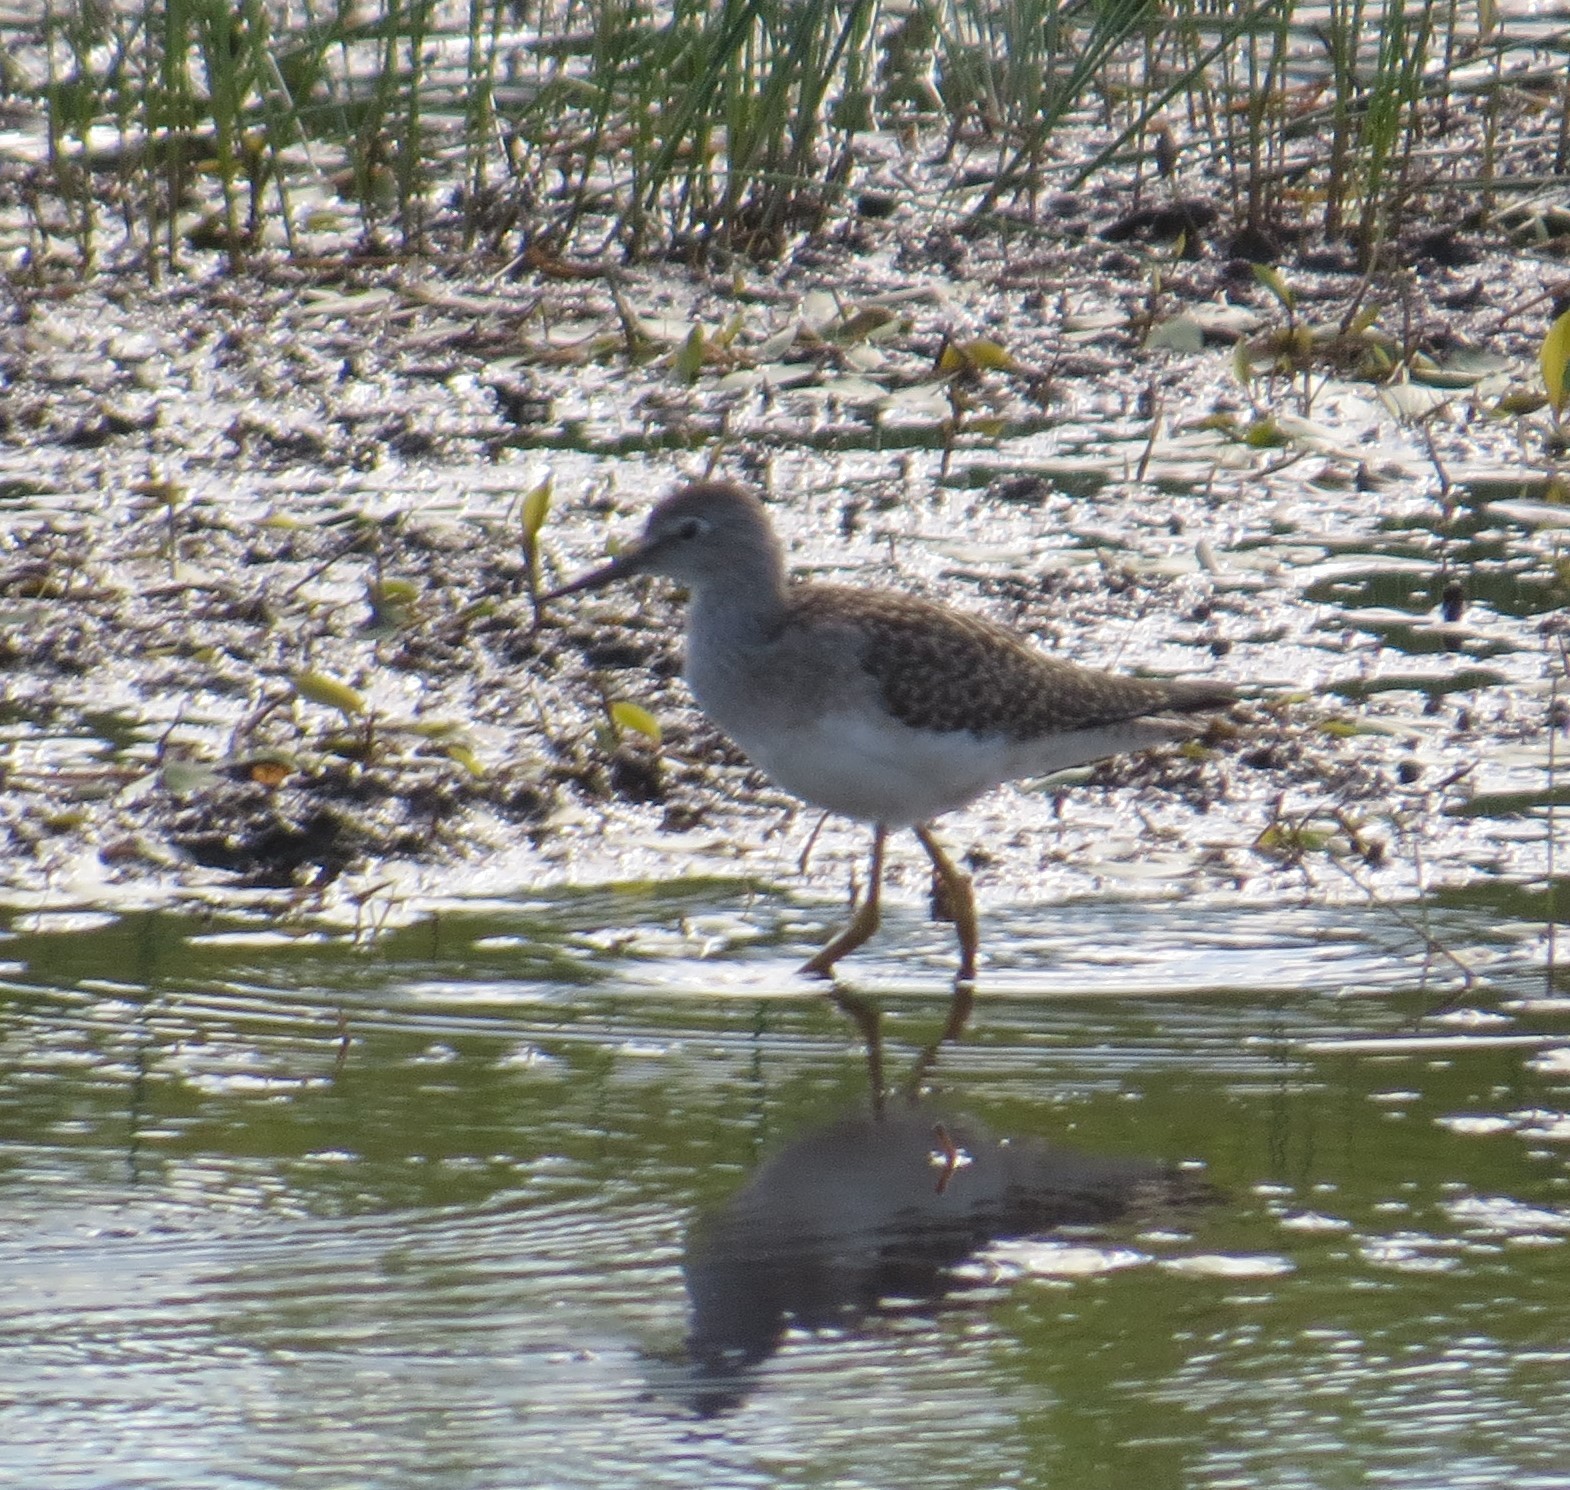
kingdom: Animalia
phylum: Chordata
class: Aves
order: Charadriiformes
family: Scolopacidae
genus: Tringa
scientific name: Tringa solitaria
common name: Solitary sandpiper
